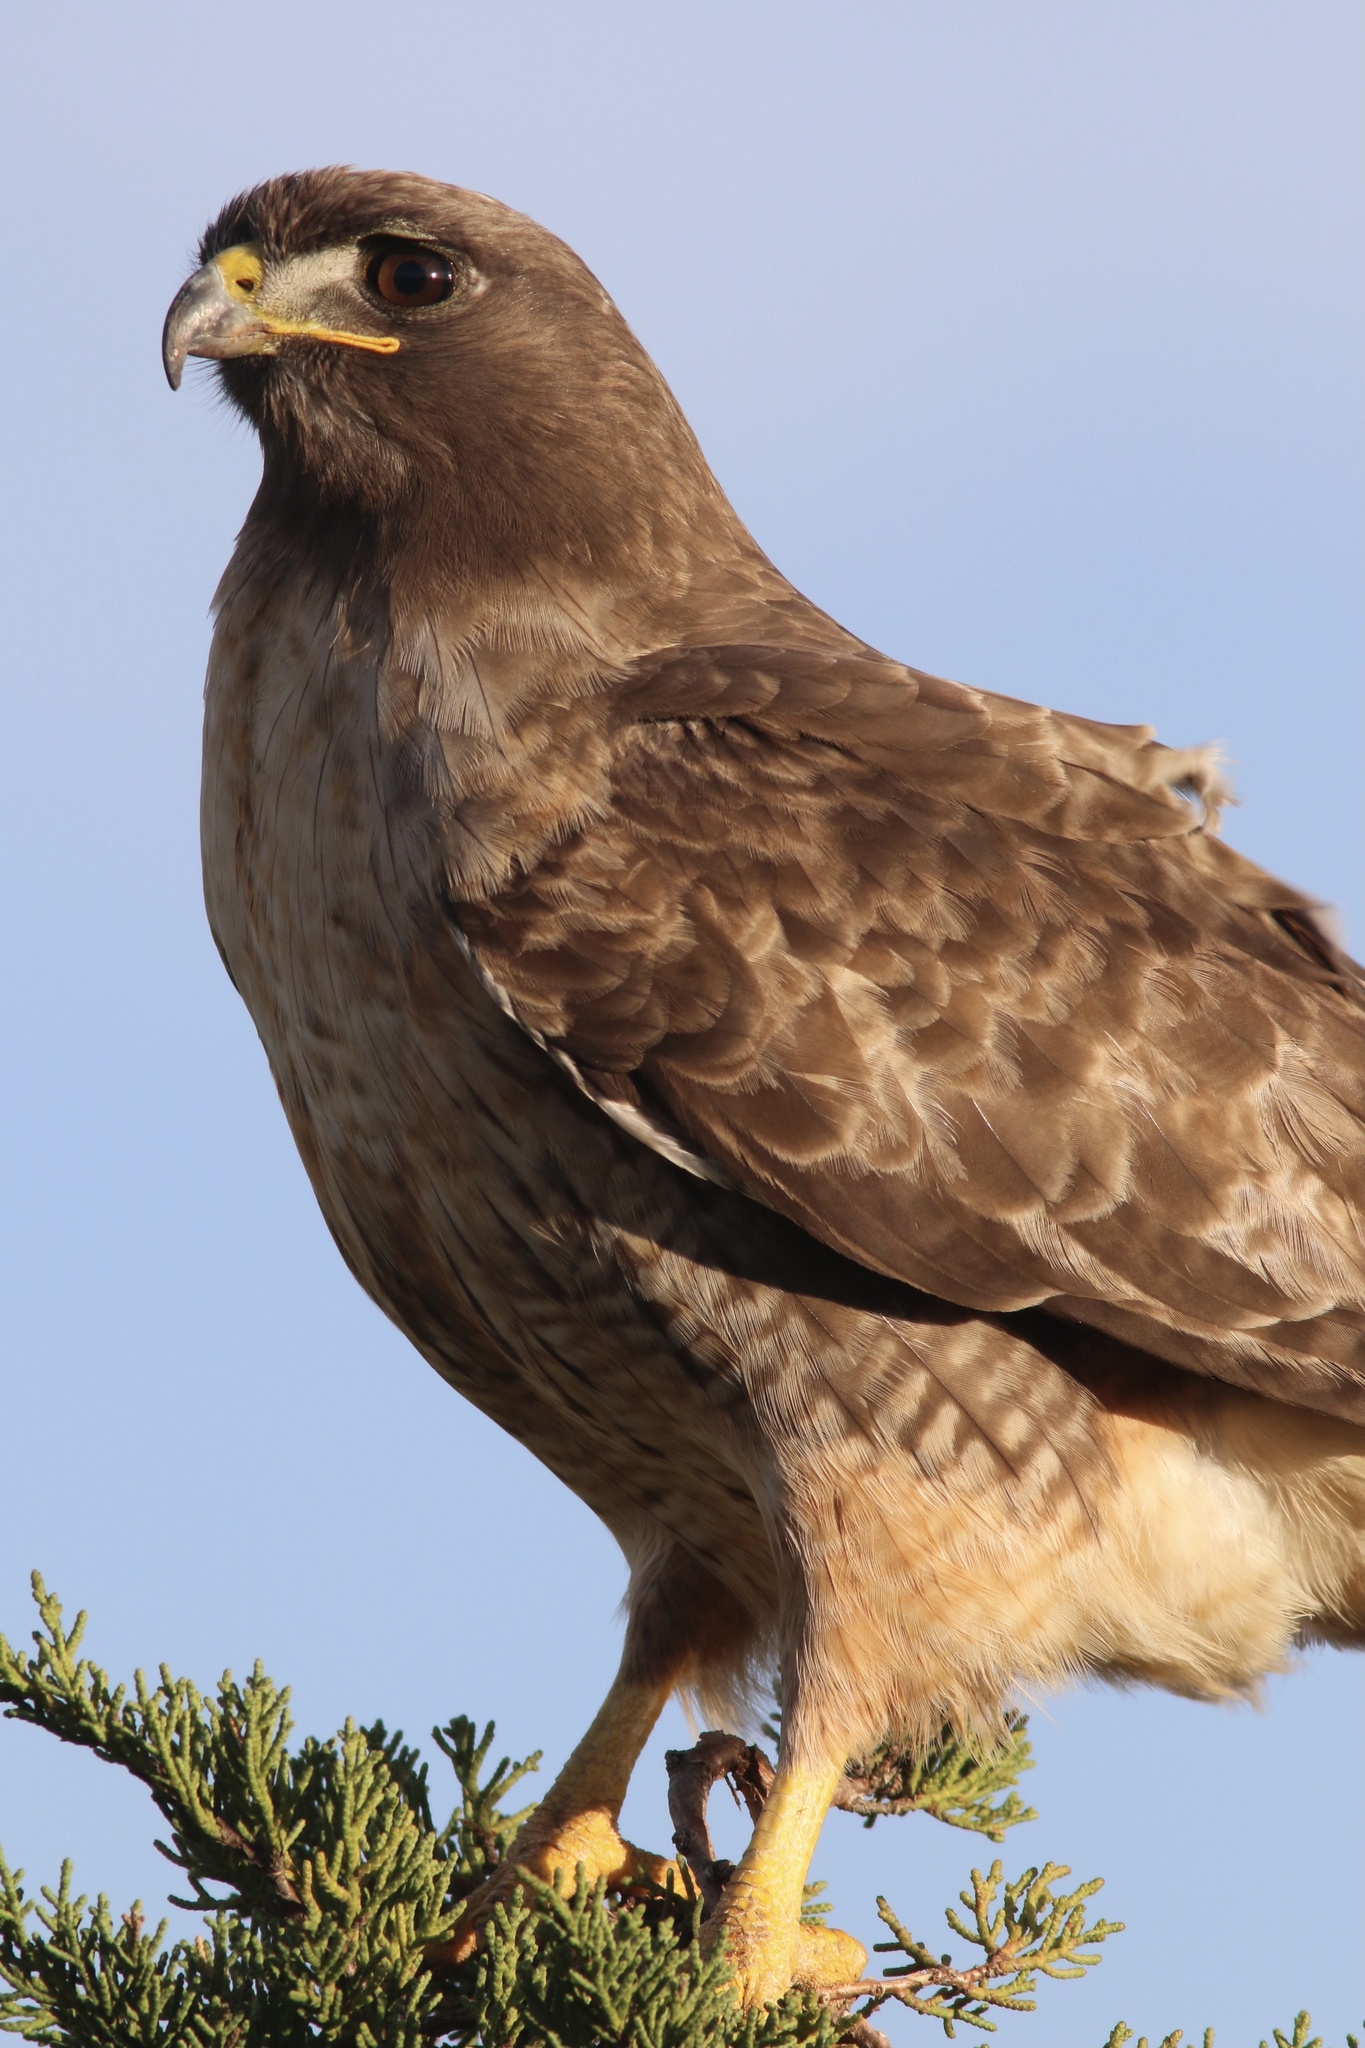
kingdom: Animalia
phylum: Chordata
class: Aves
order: Accipitriformes
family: Accipitridae
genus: Buteo
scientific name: Buteo jamaicensis
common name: Red-tailed hawk
